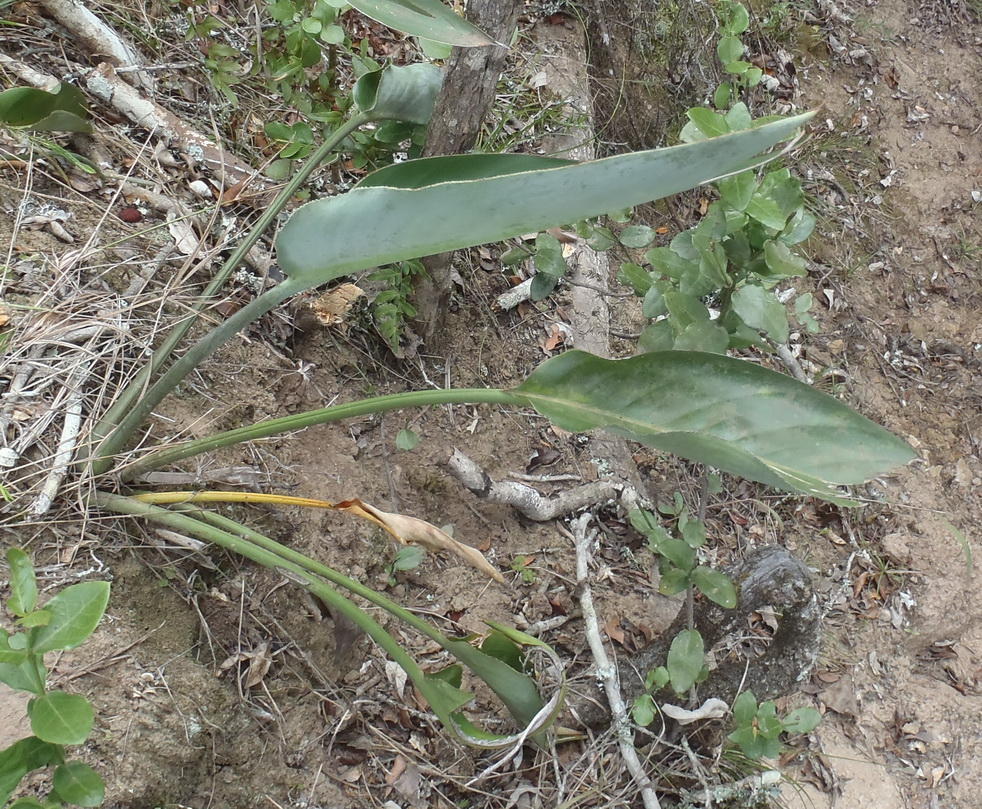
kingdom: Plantae
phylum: Tracheophyta
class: Liliopsida
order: Zingiberales
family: Strelitziaceae
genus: Strelitzia
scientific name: Strelitzia reginae
